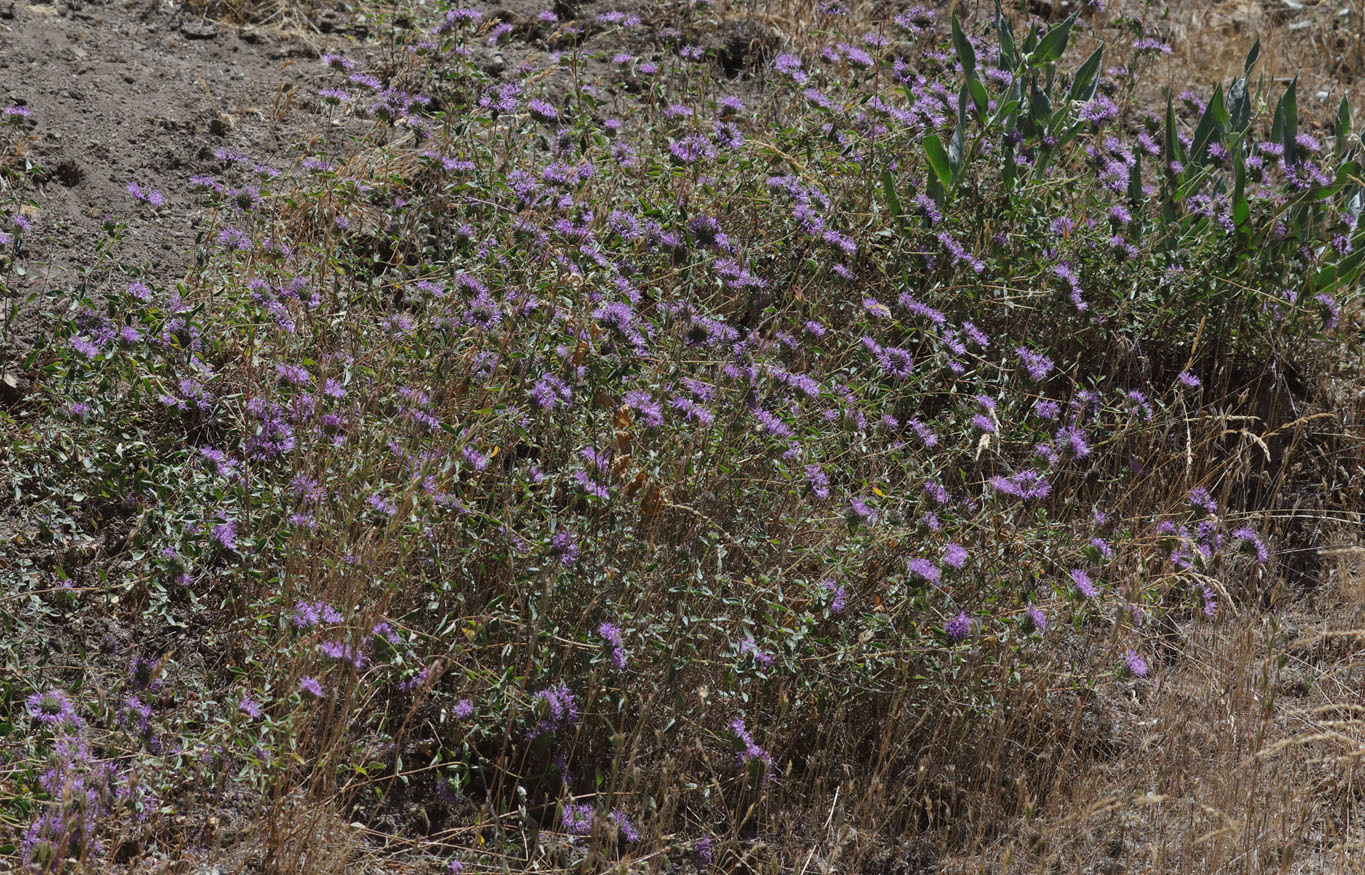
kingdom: Plantae
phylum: Tracheophyta
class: Magnoliopsida
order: Lamiales
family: Lamiaceae
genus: Monardella
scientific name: Monardella odoratissima
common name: Pacific monardella
